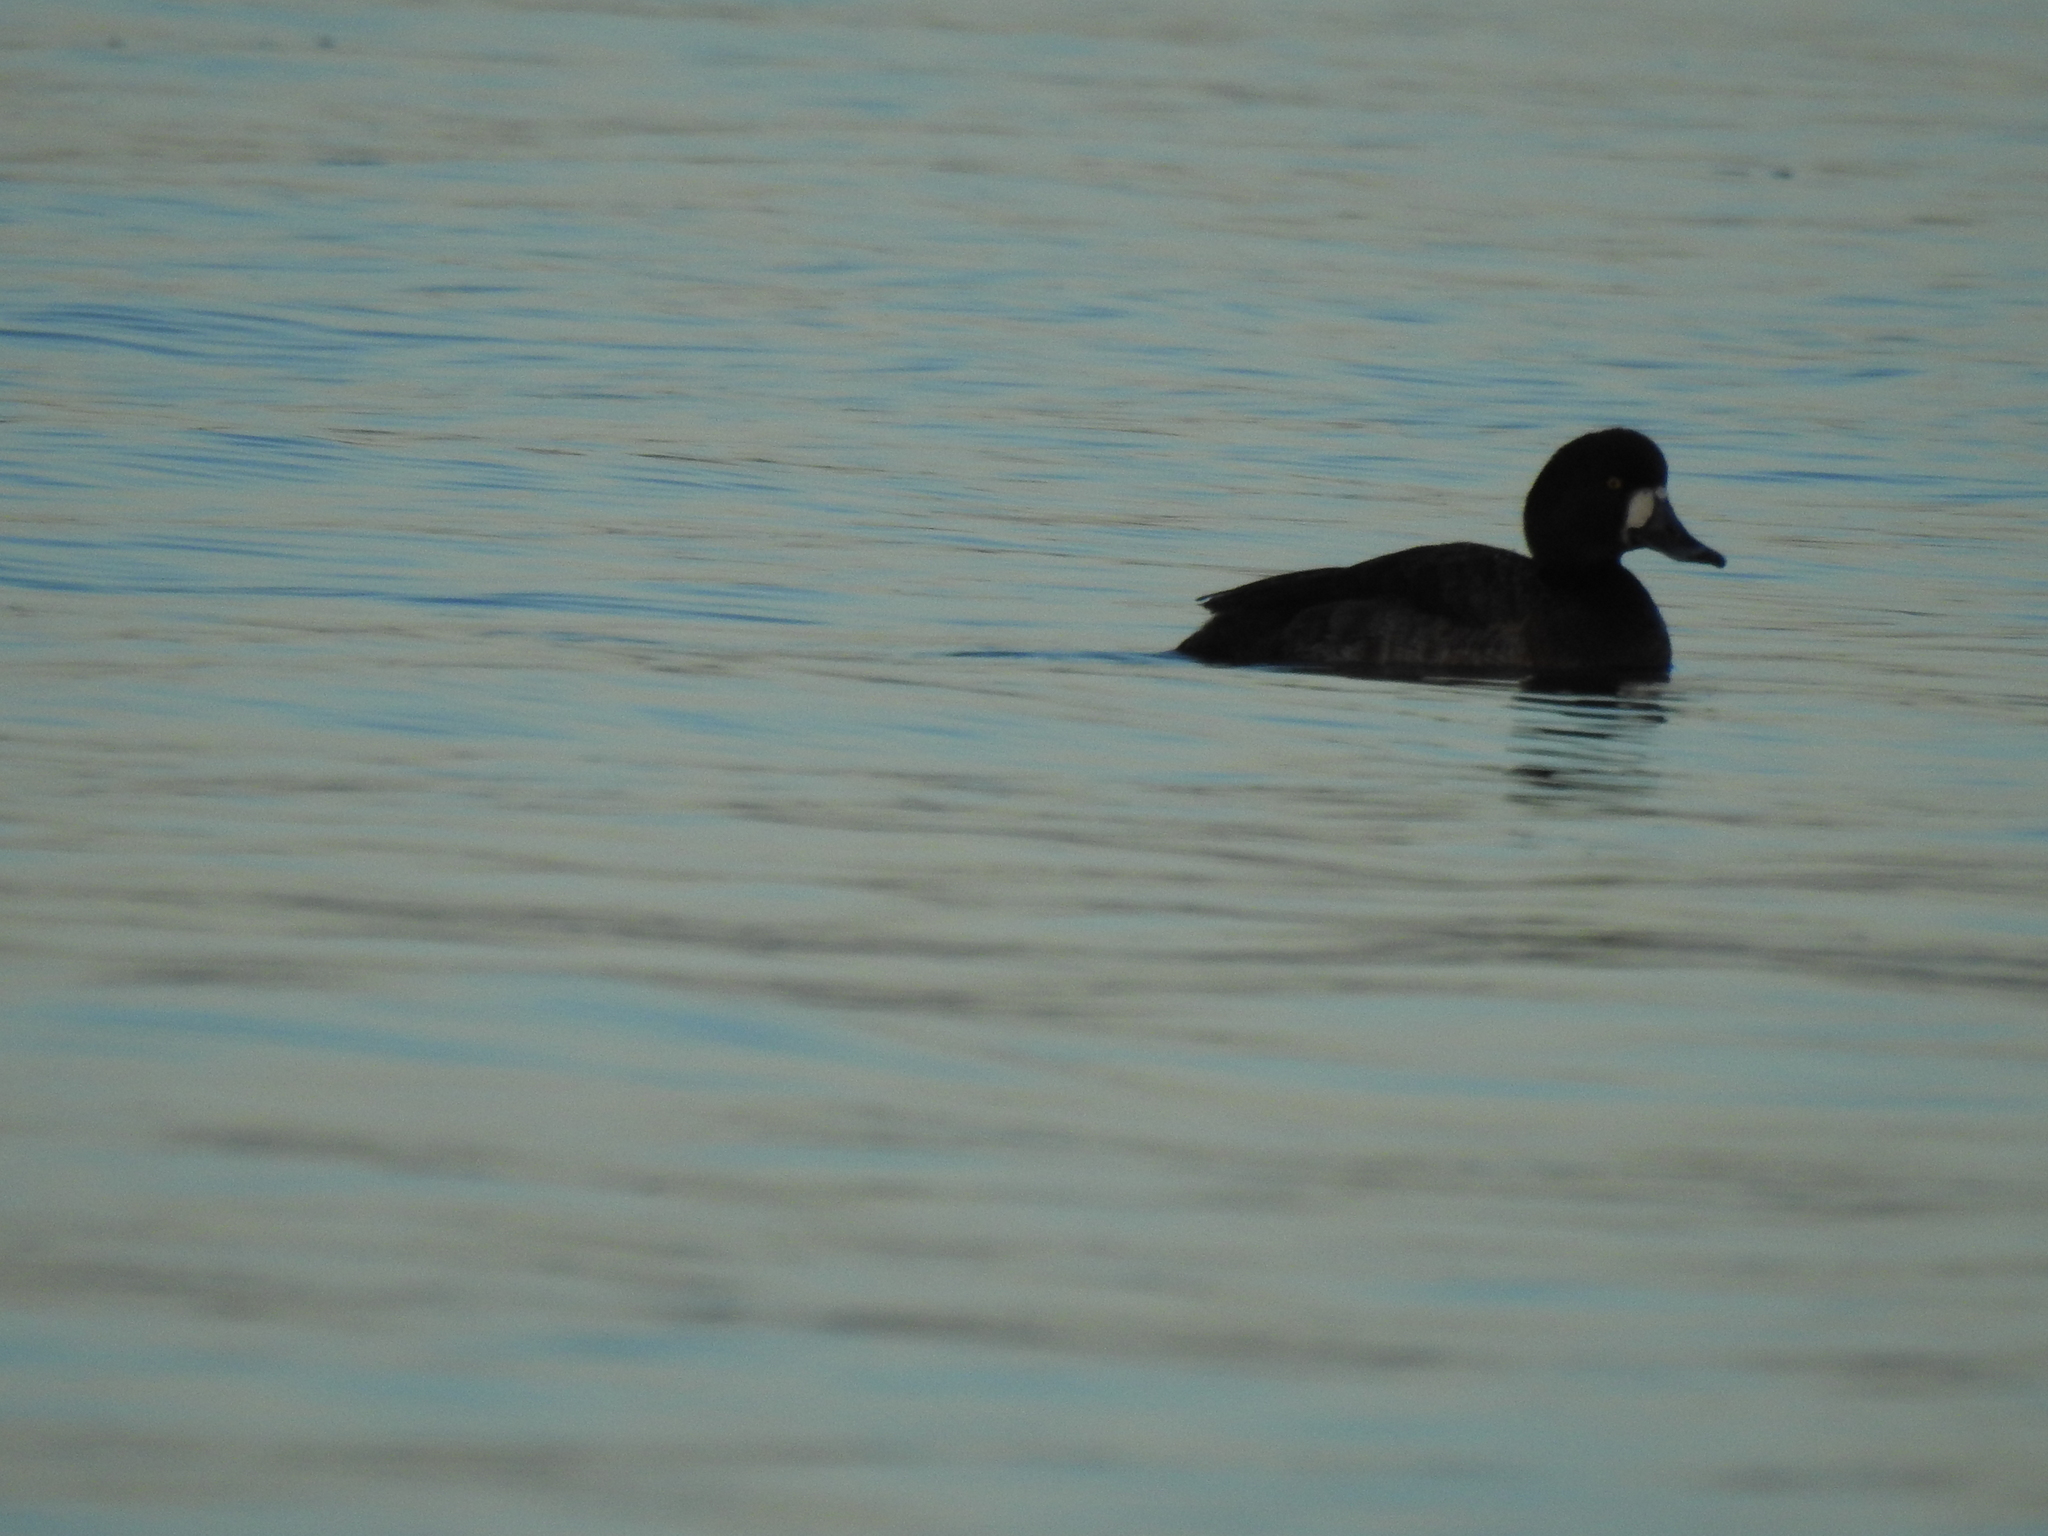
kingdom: Animalia
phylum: Chordata
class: Aves
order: Anseriformes
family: Anatidae
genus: Aythya
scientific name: Aythya marila
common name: Greater scaup
